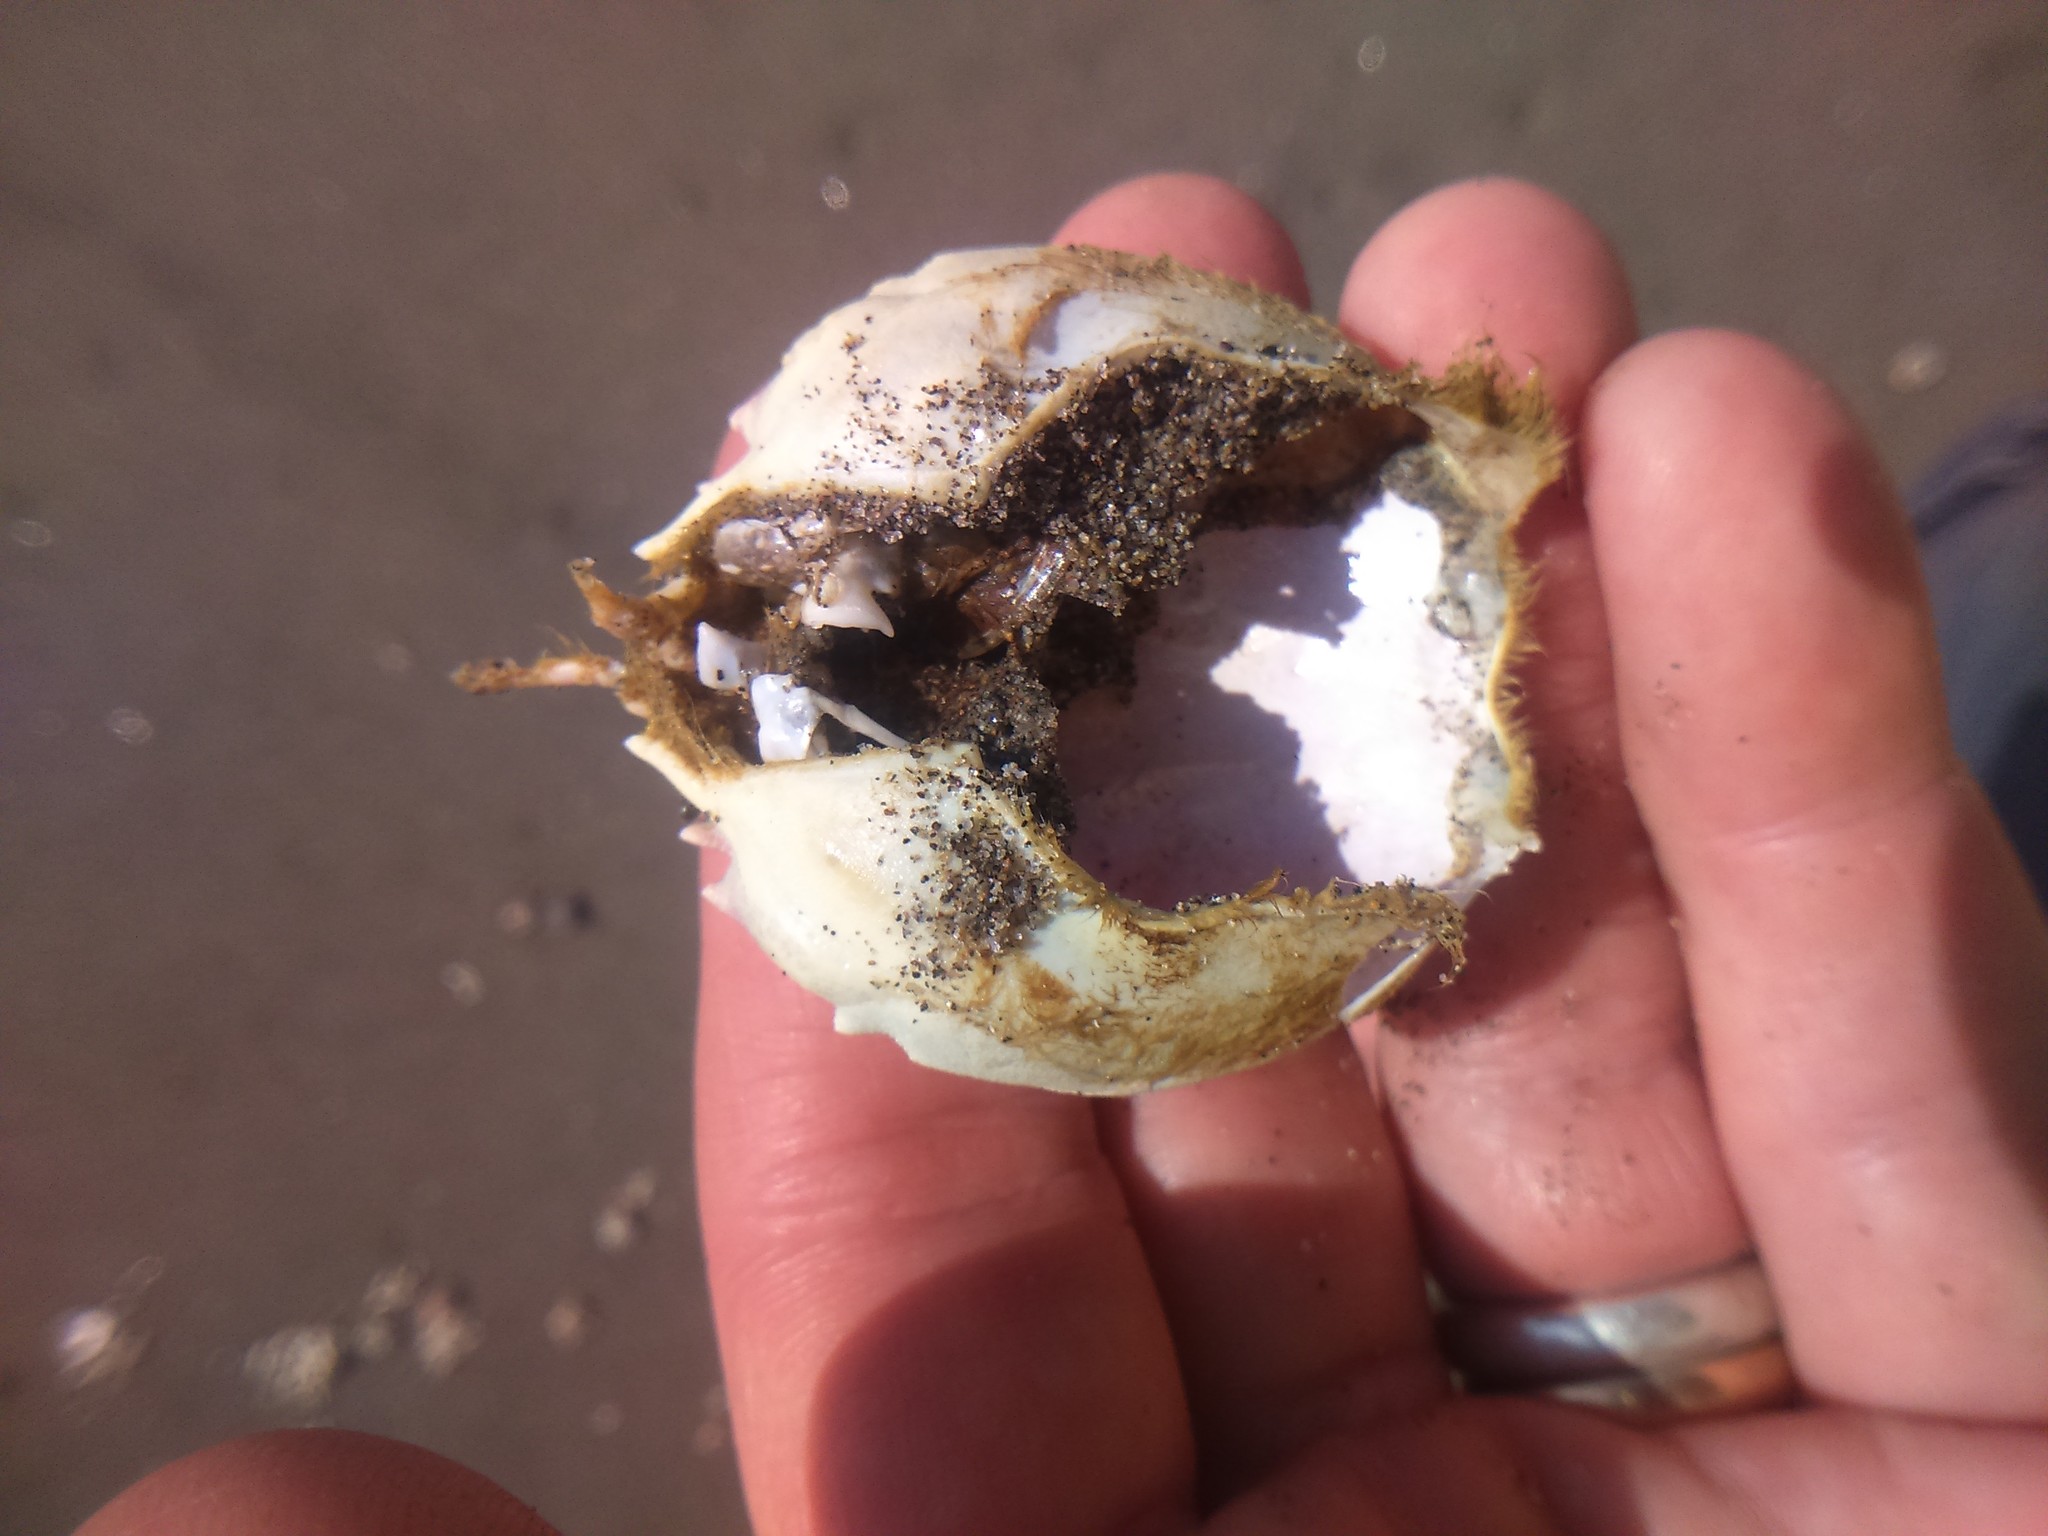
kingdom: Animalia
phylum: Arthropoda
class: Malacostraca
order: Decapoda
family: Atelecyclidae
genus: Pseudocorystes
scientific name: Pseudocorystes sicarius
